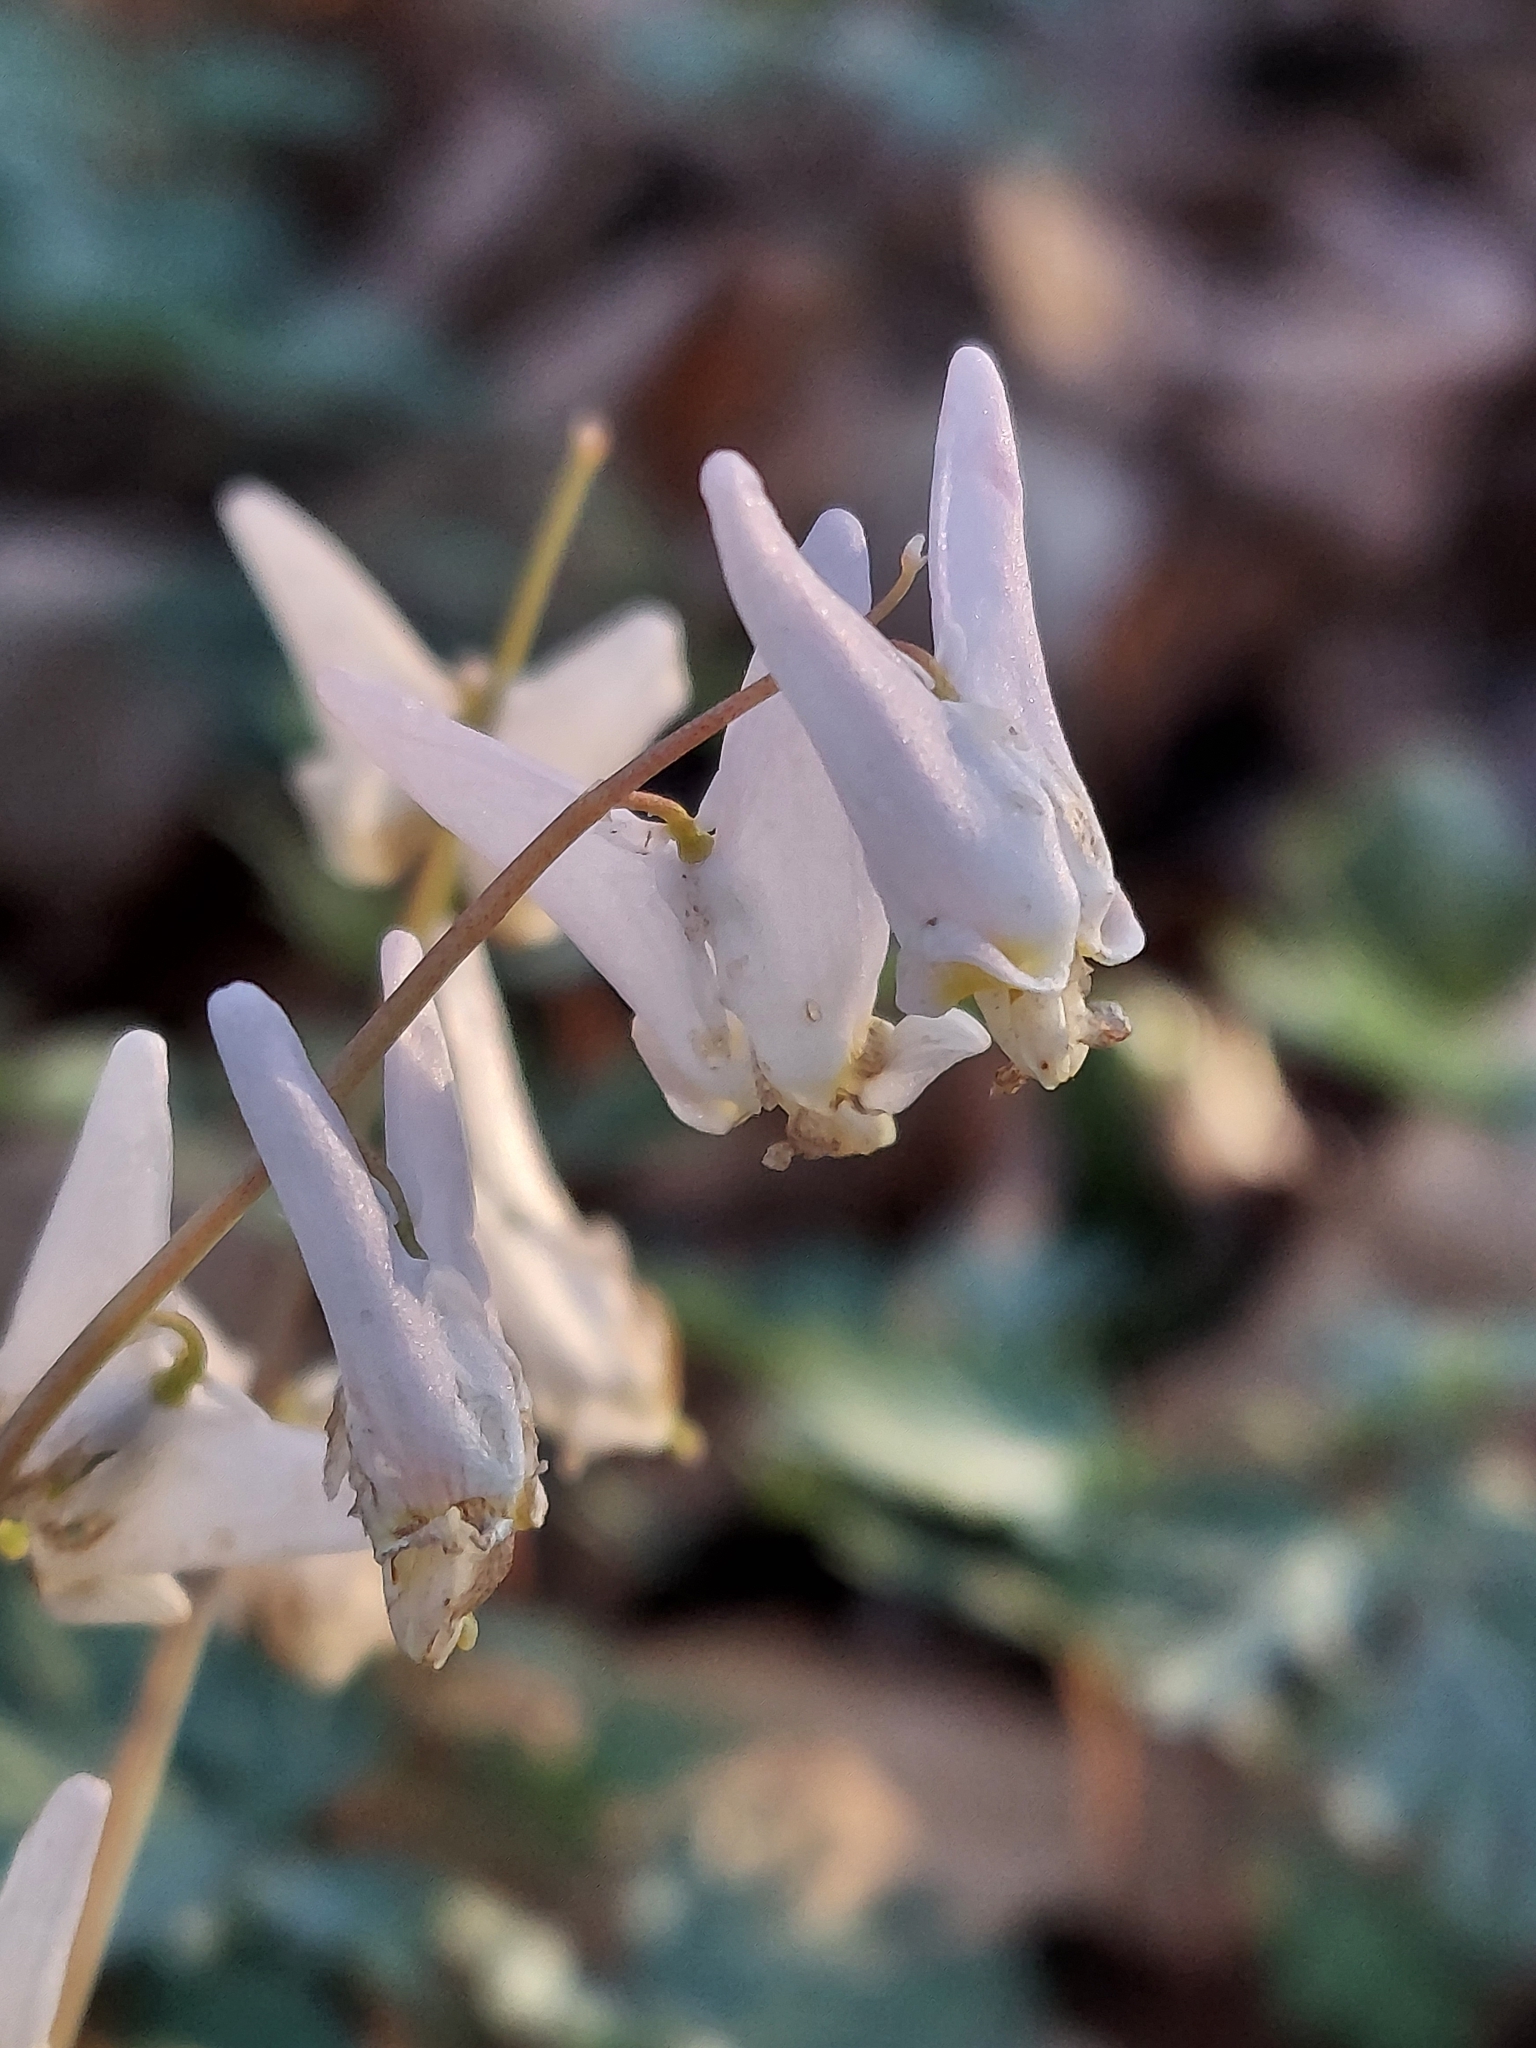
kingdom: Plantae
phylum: Tracheophyta
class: Magnoliopsida
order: Ranunculales
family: Papaveraceae
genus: Dicentra
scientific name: Dicentra cucullaria
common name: Dutchman's breeches
